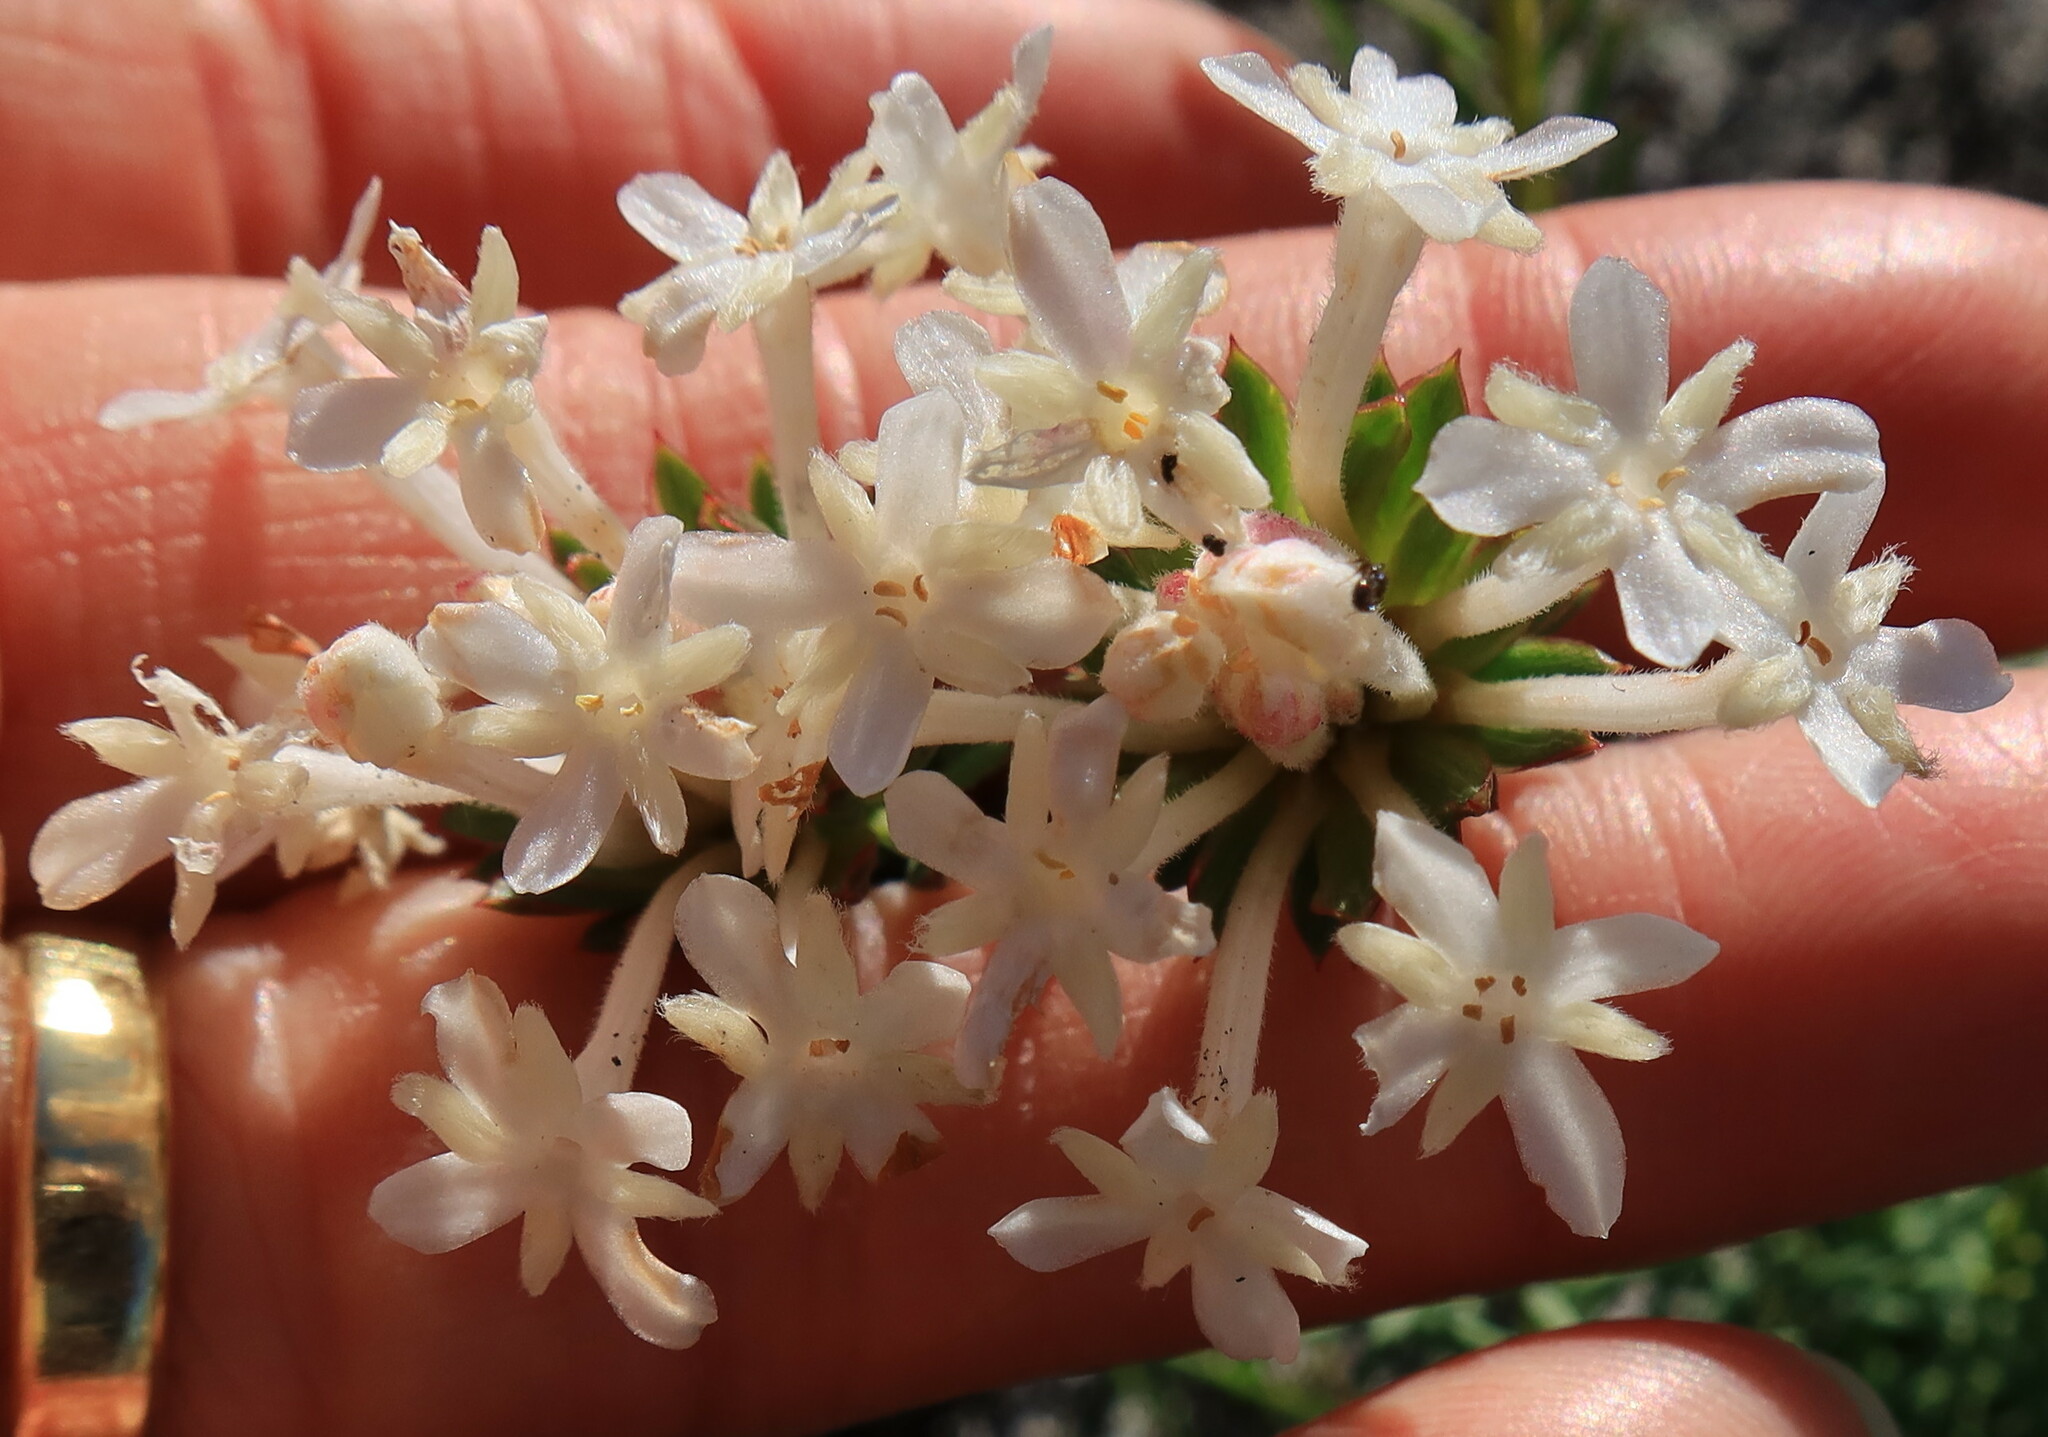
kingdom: Plantae
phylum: Tracheophyta
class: Magnoliopsida
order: Malvales
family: Thymelaeaceae
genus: Gnidia
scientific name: Gnidia pinifolia
